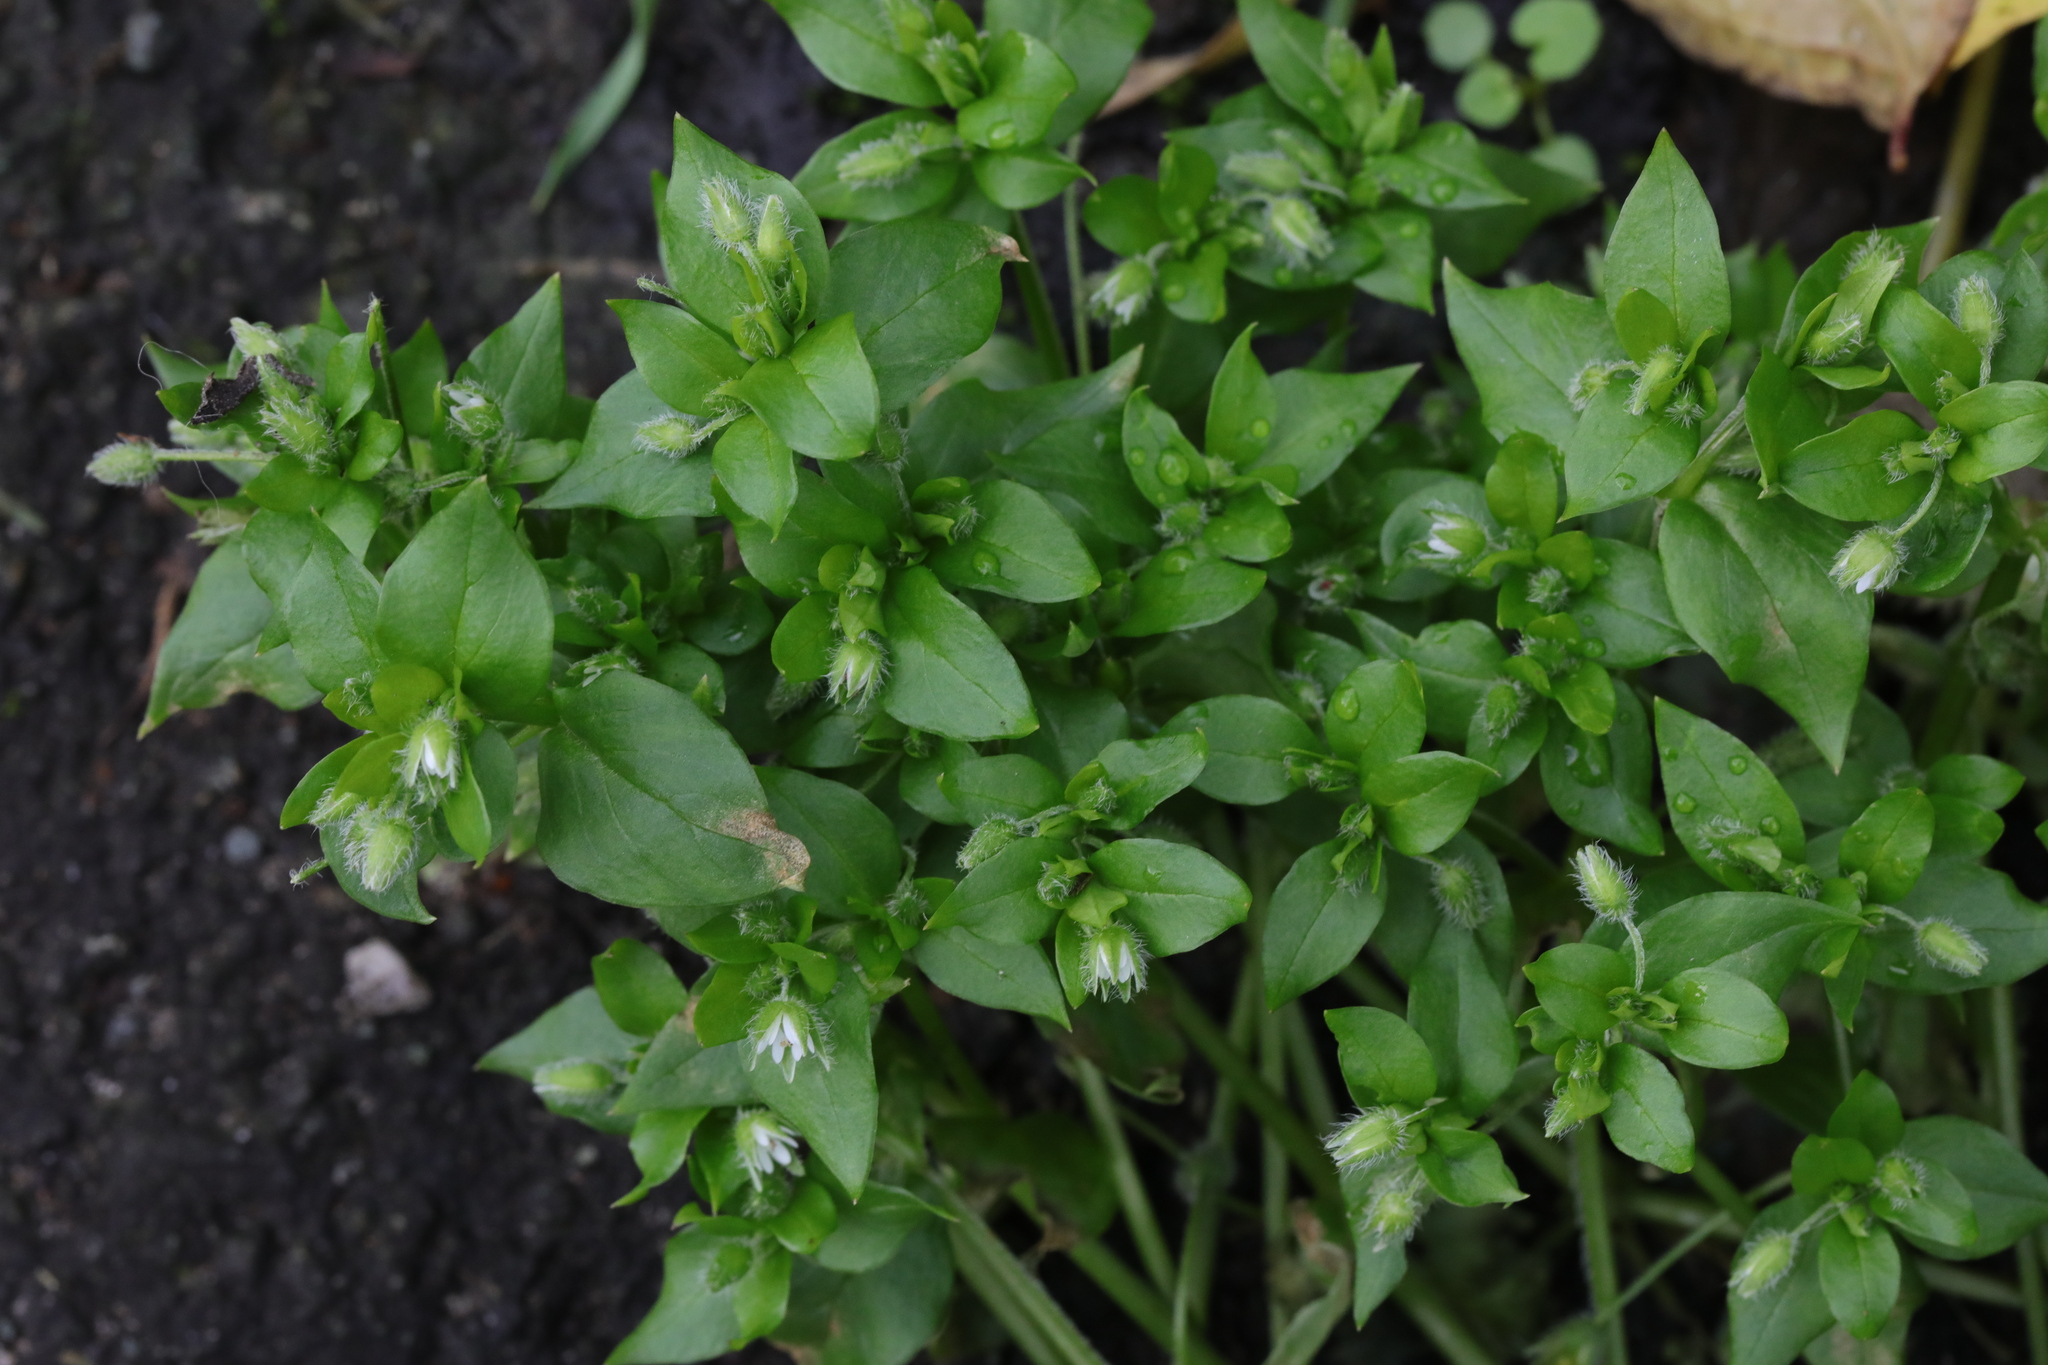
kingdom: Plantae
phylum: Tracheophyta
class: Magnoliopsida
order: Caryophyllales
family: Caryophyllaceae
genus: Stellaria
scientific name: Stellaria media
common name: Common chickweed
